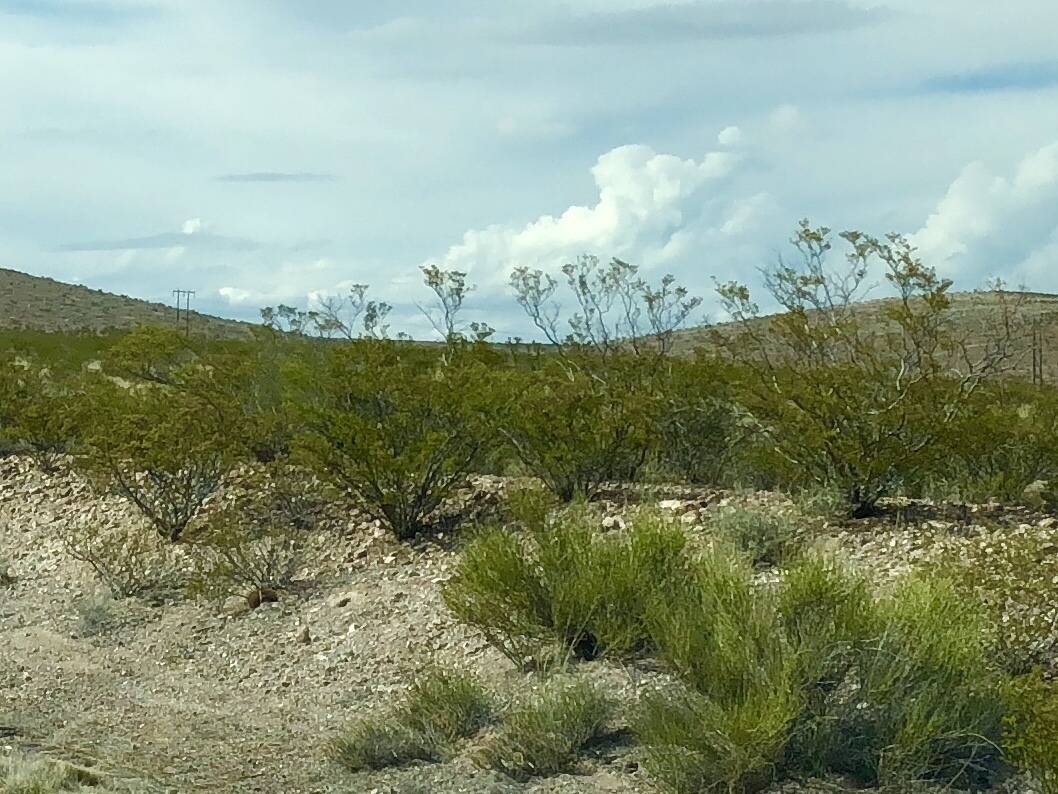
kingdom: Plantae
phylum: Tracheophyta
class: Magnoliopsida
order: Zygophyllales
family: Zygophyllaceae
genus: Larrea
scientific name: Larrea tridentata
